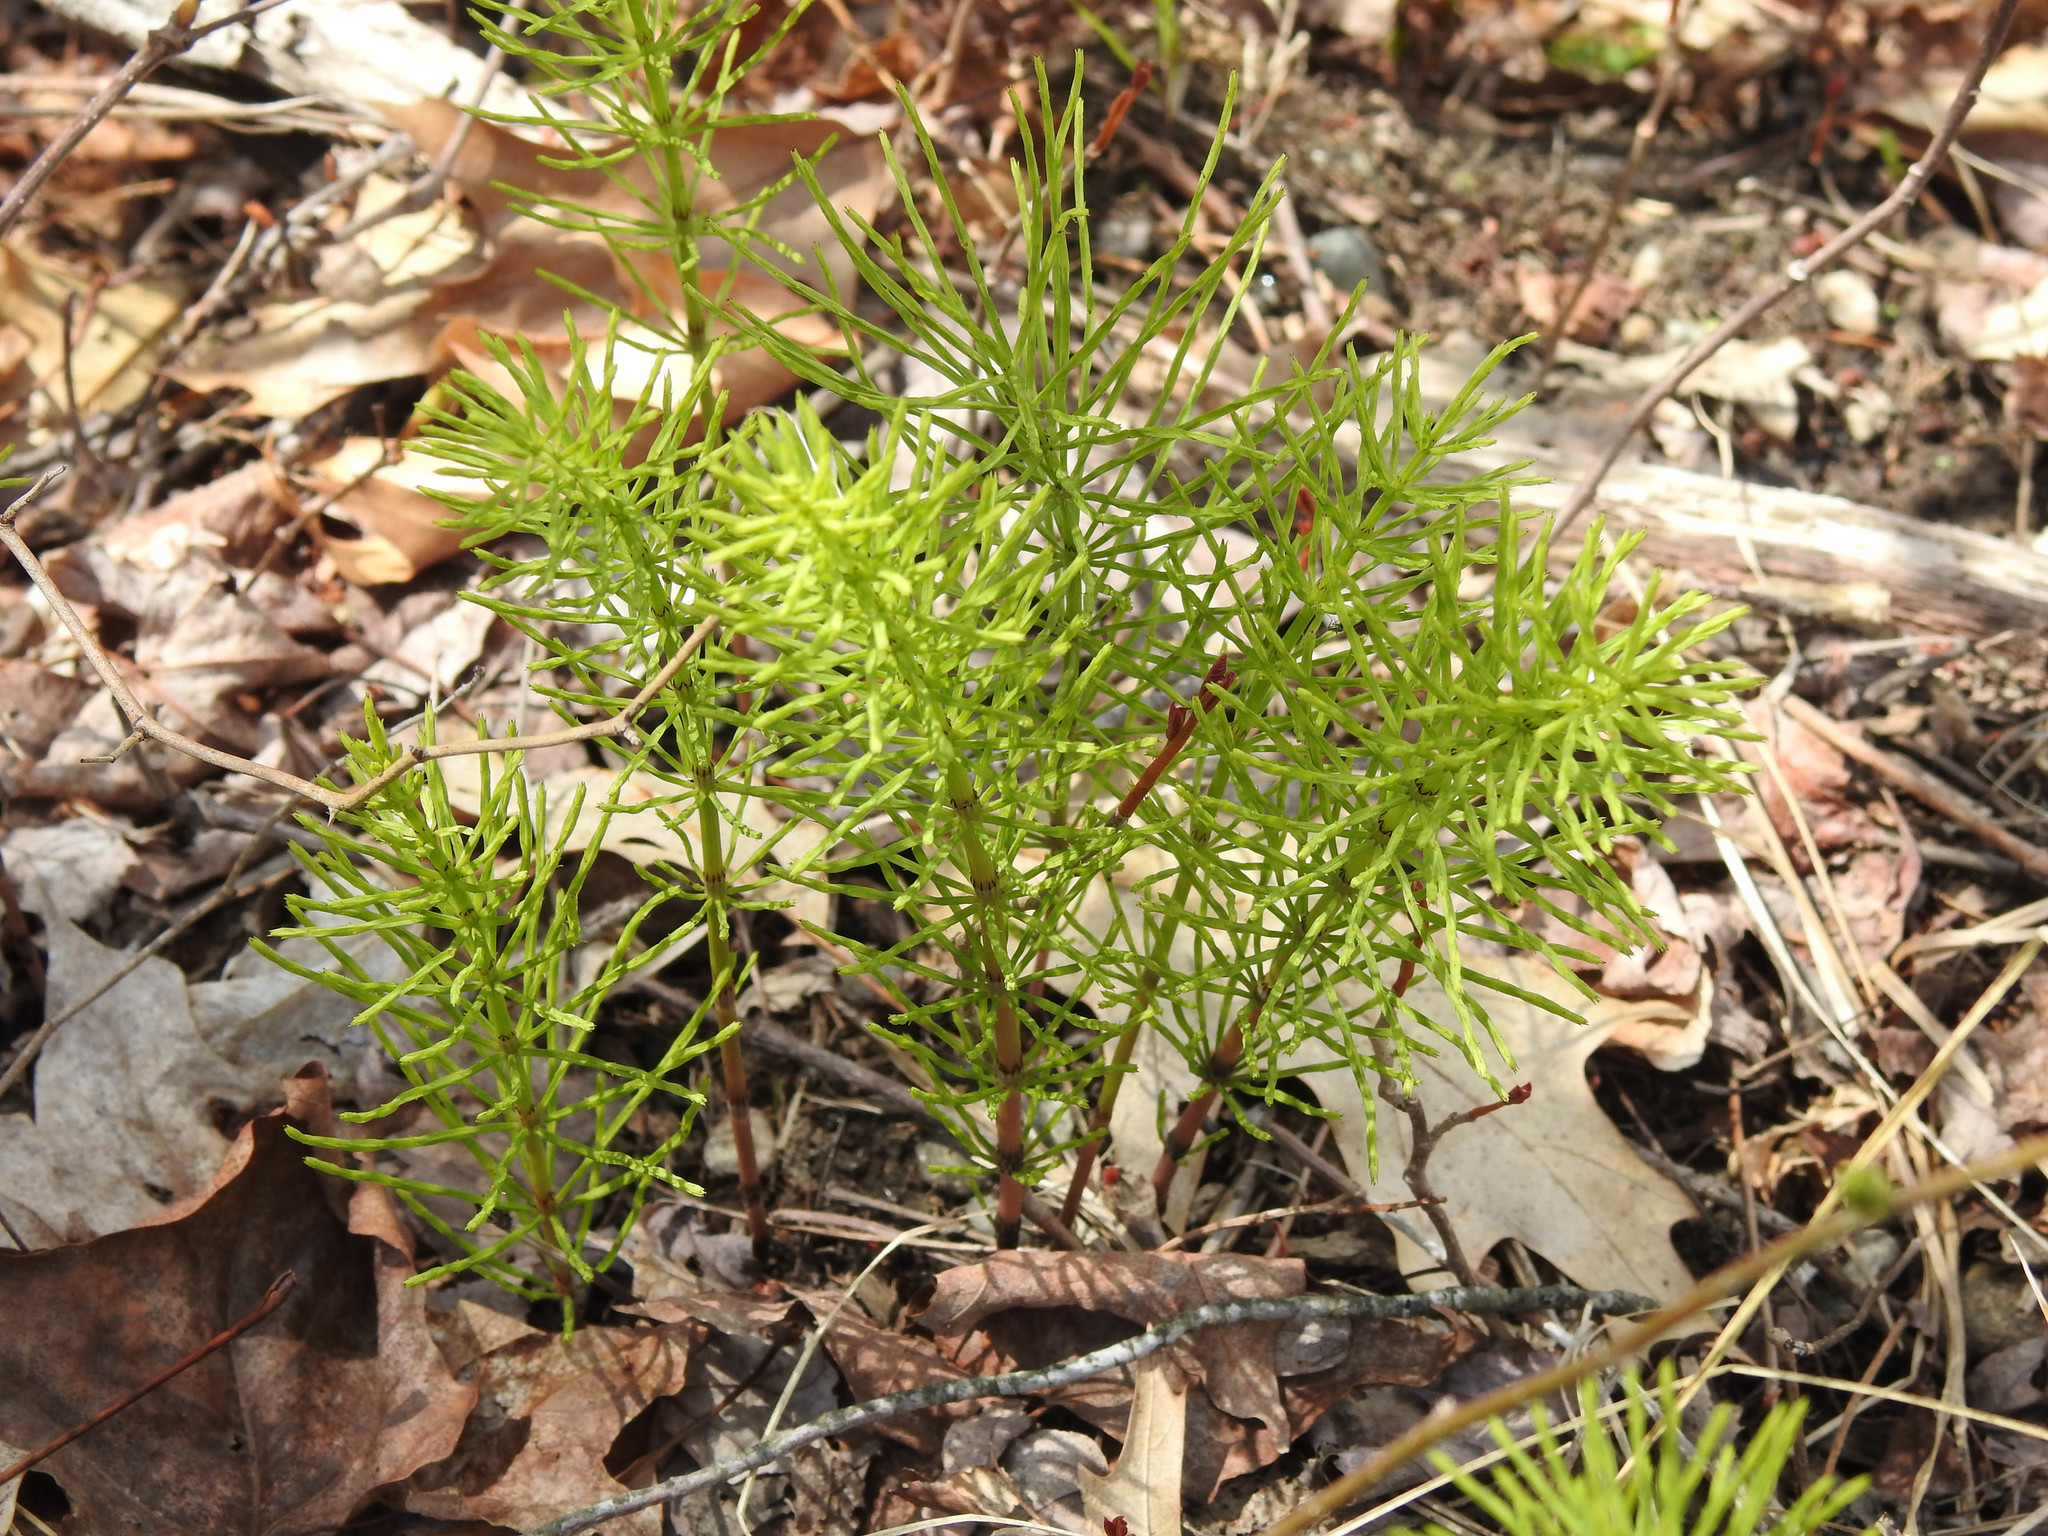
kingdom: Plantae
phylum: Tracheophyta
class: Polypodiopsida
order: Equisetales
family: Equisetaceae
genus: Equisetum
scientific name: Equisetum arvense
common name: Field horsetail
